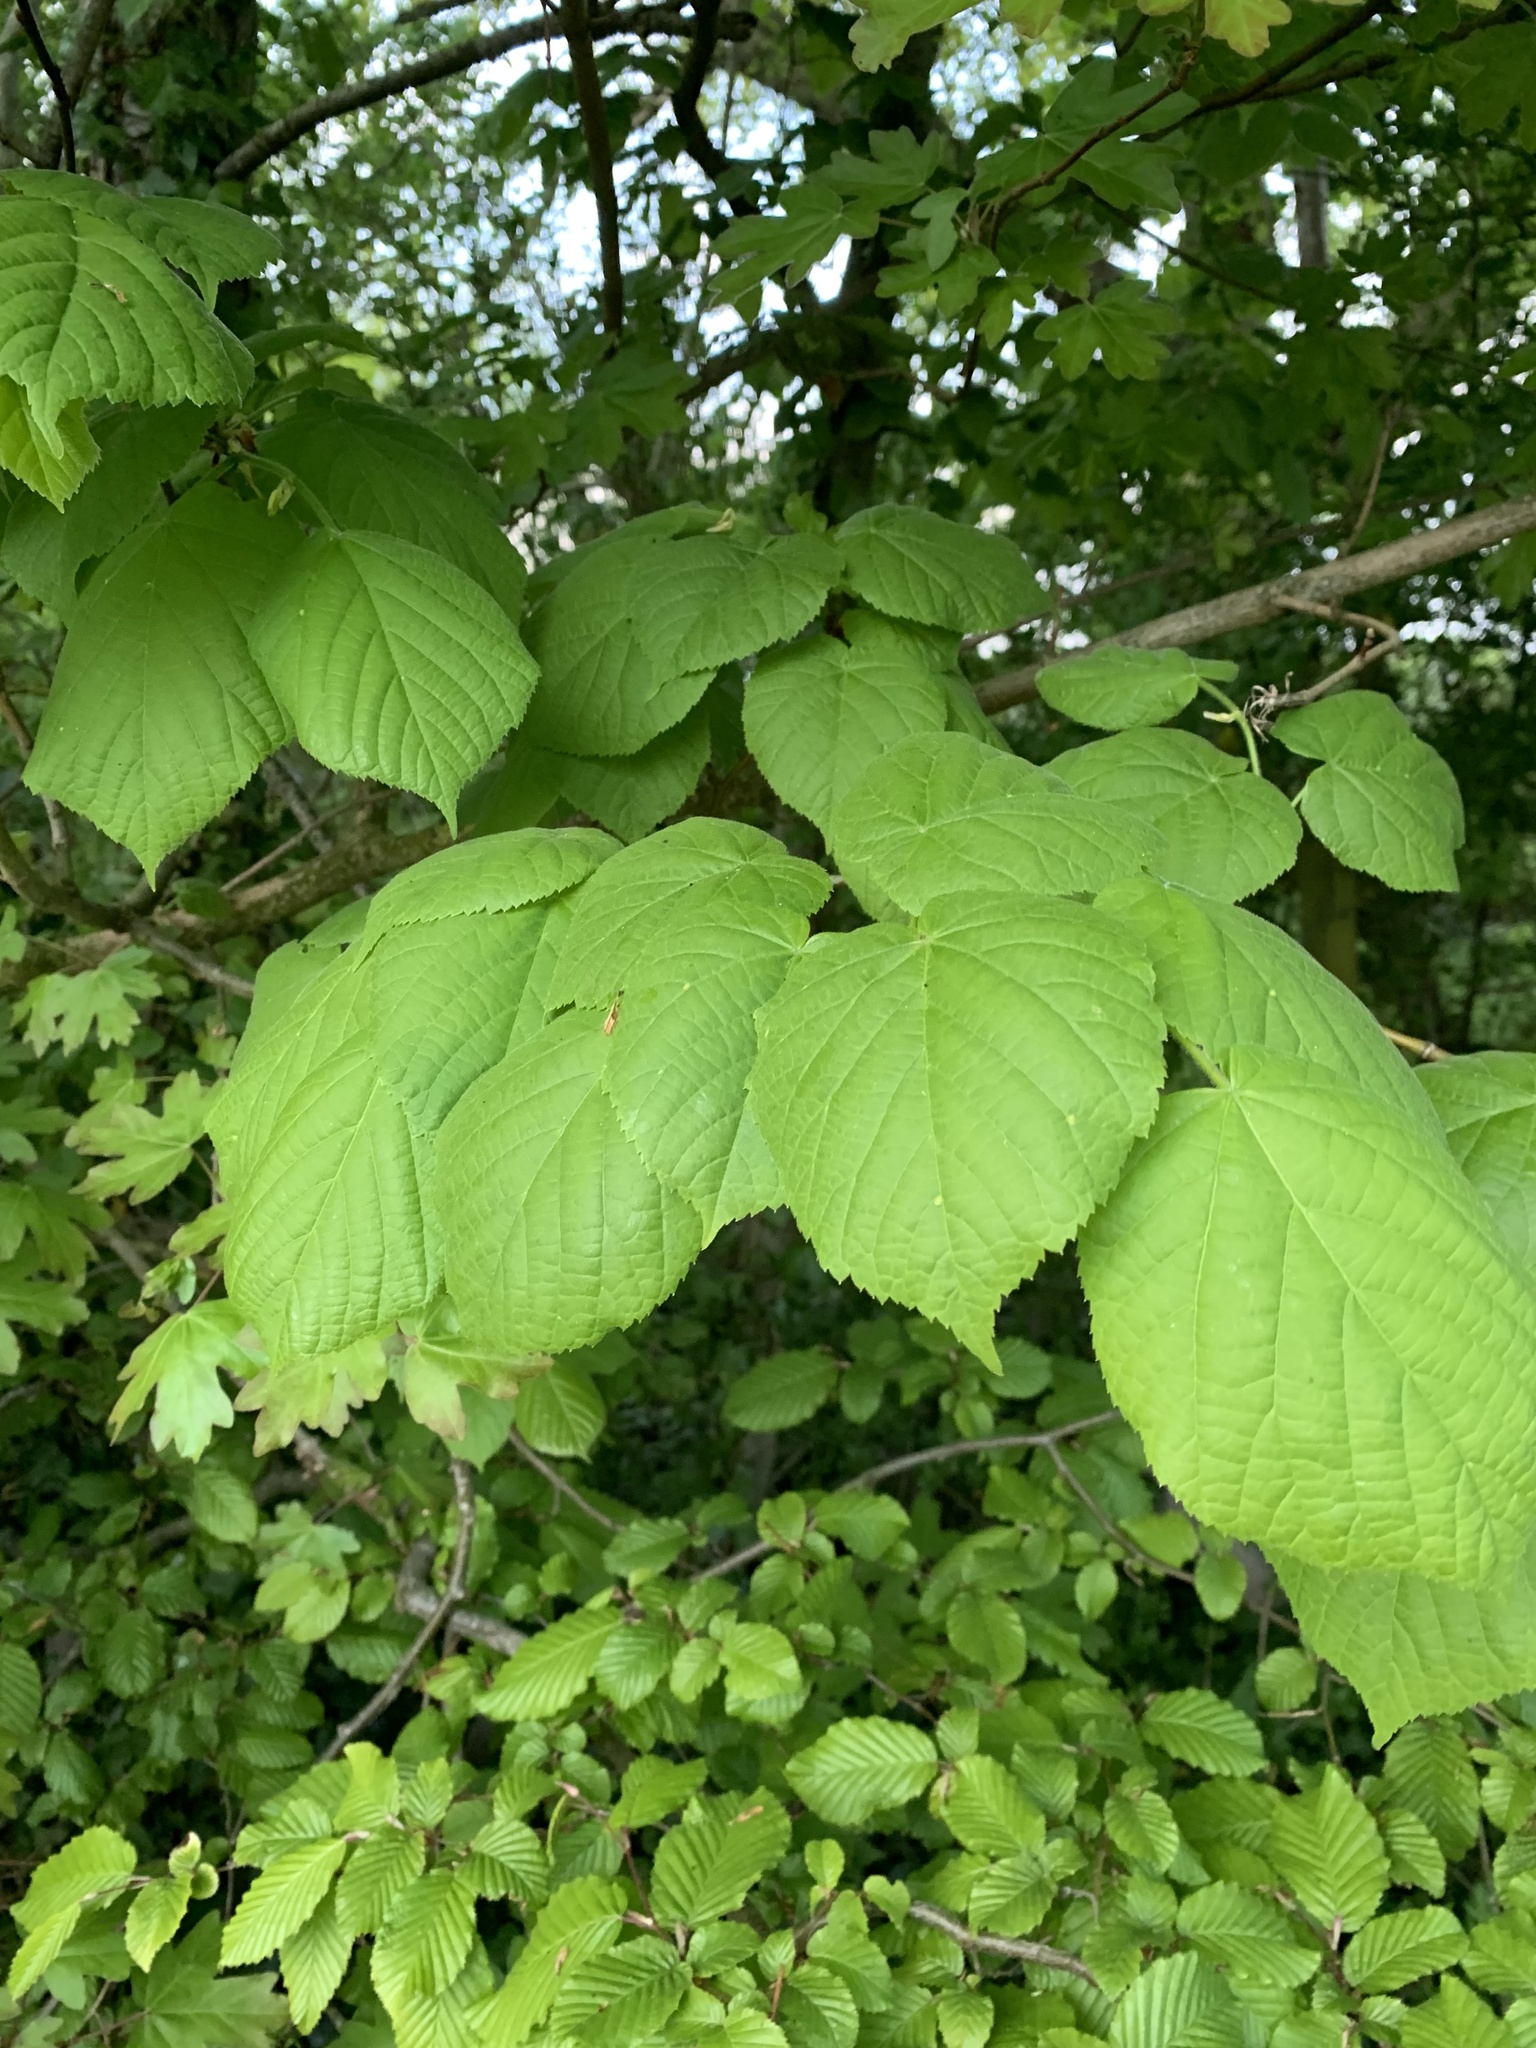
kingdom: Plantae
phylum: Tracheophyta
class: Magnoliopsida
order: Fagales
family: Betulaceae
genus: Corylus
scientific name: Corylus avellana
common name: European hazel
